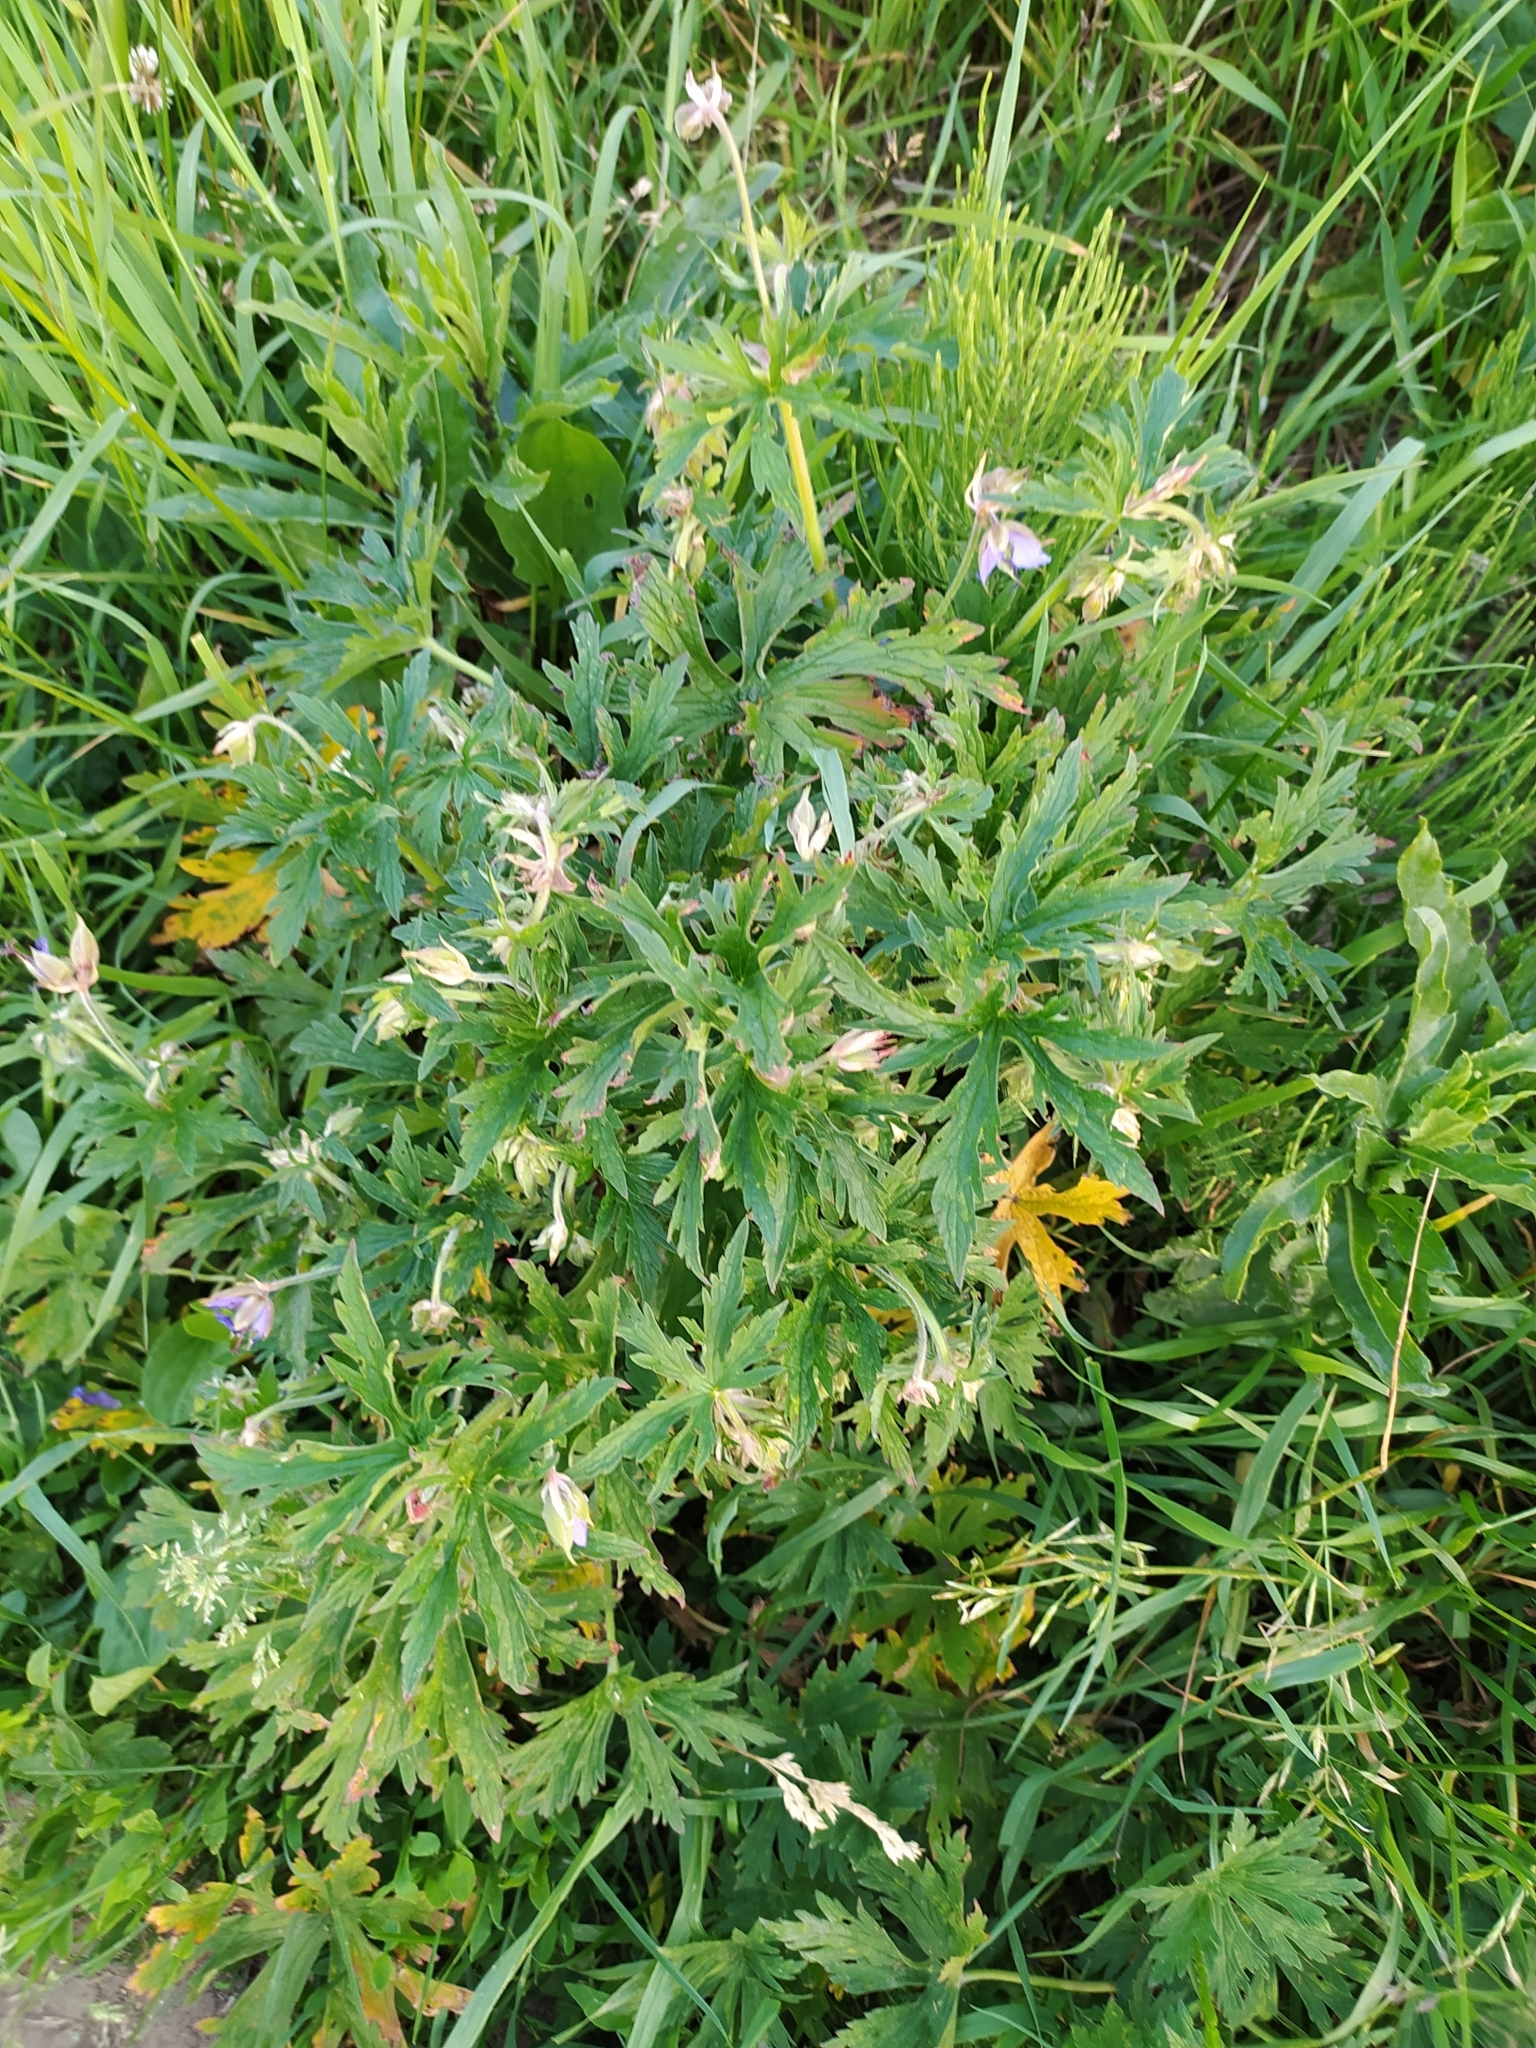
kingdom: Plantae
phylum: Tracheophyta
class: Magnoliopsida
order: Geraniales
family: Geraniaceae
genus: Geranium
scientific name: Geranium pratense
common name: Meadow crane's-bill
